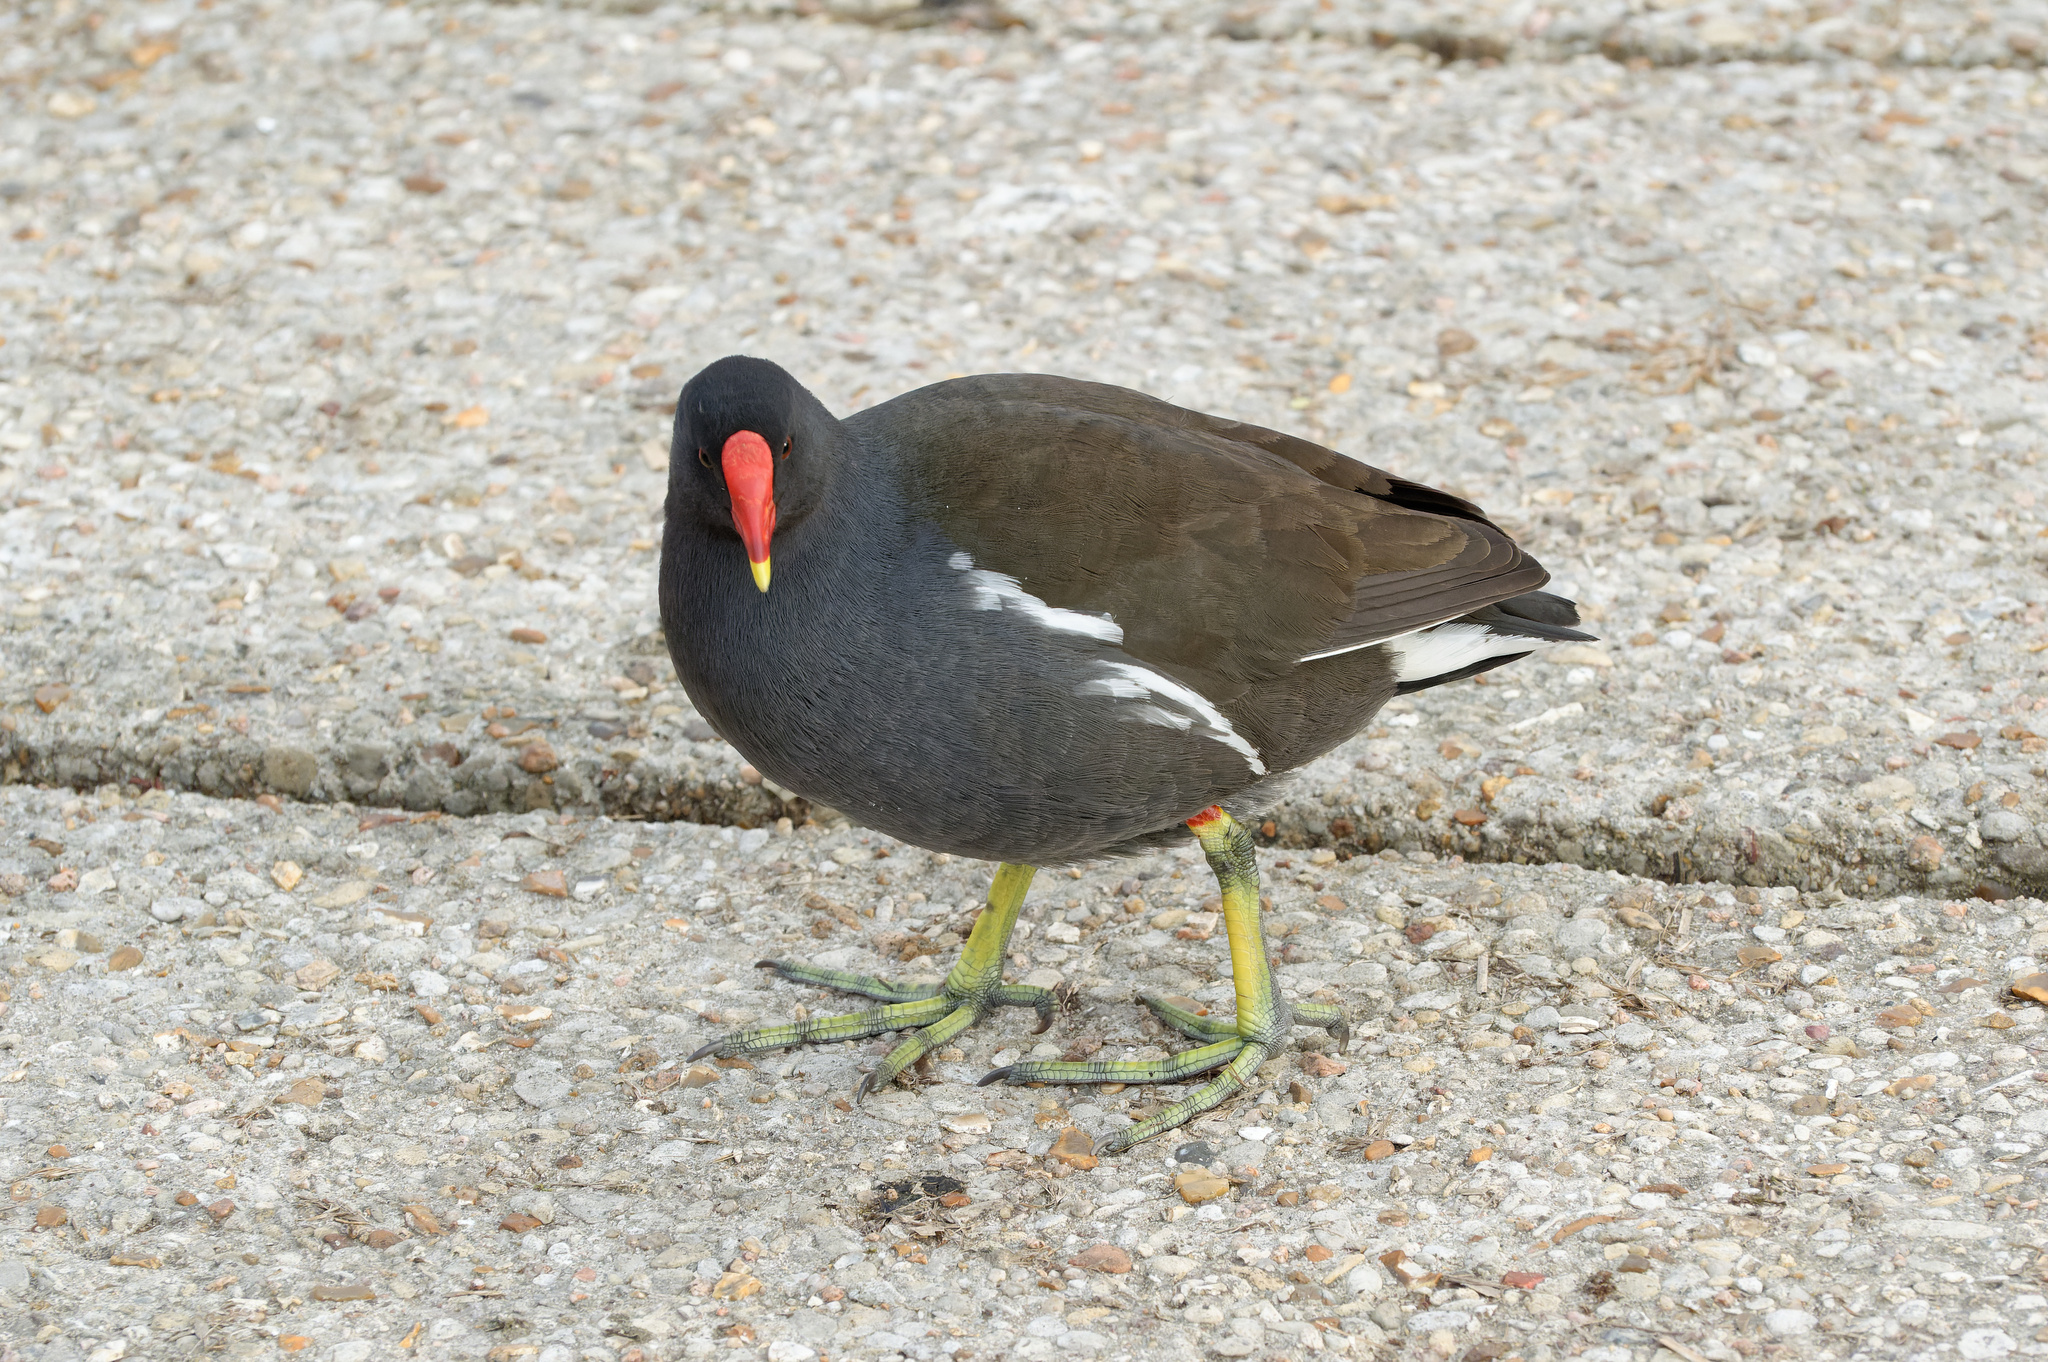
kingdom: Animalia
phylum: Chordata
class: Aves
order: Gruiformes
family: Rallidae
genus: Gallinula
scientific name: Gallinula chloropus
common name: Common moorhen
